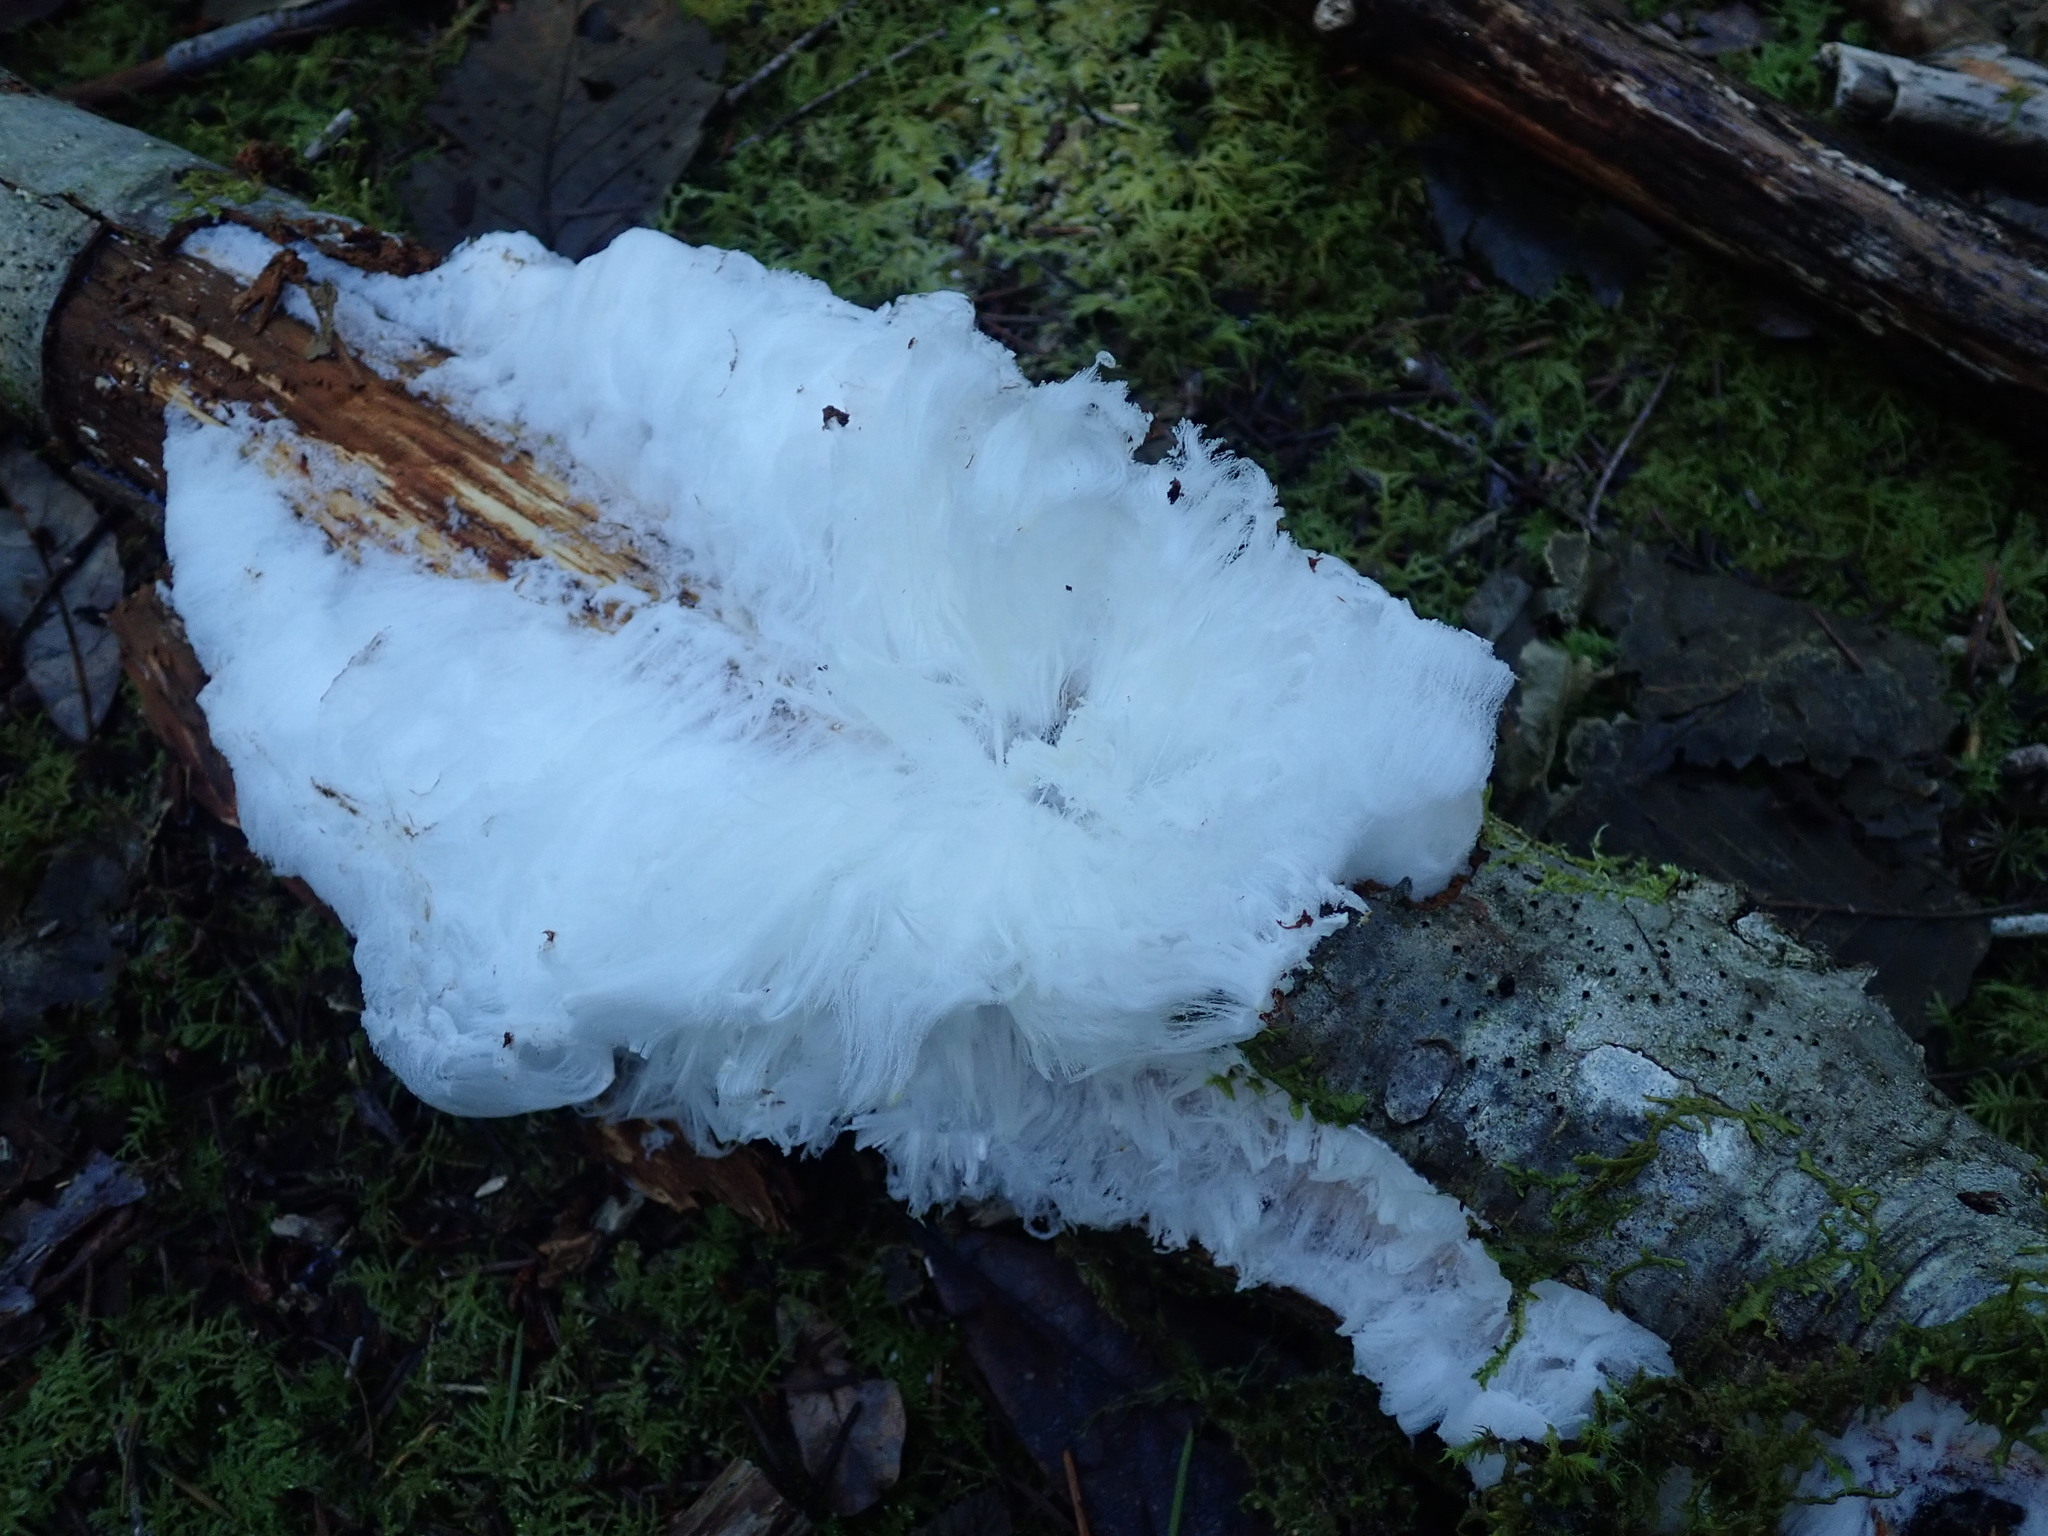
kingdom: Fungi
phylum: Basidiomycota
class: Agaricomycetes
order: Auriculariales
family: Auriculariaceae
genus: Exidiopsis
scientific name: Exidiopsis effusa
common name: Hair ice crust
